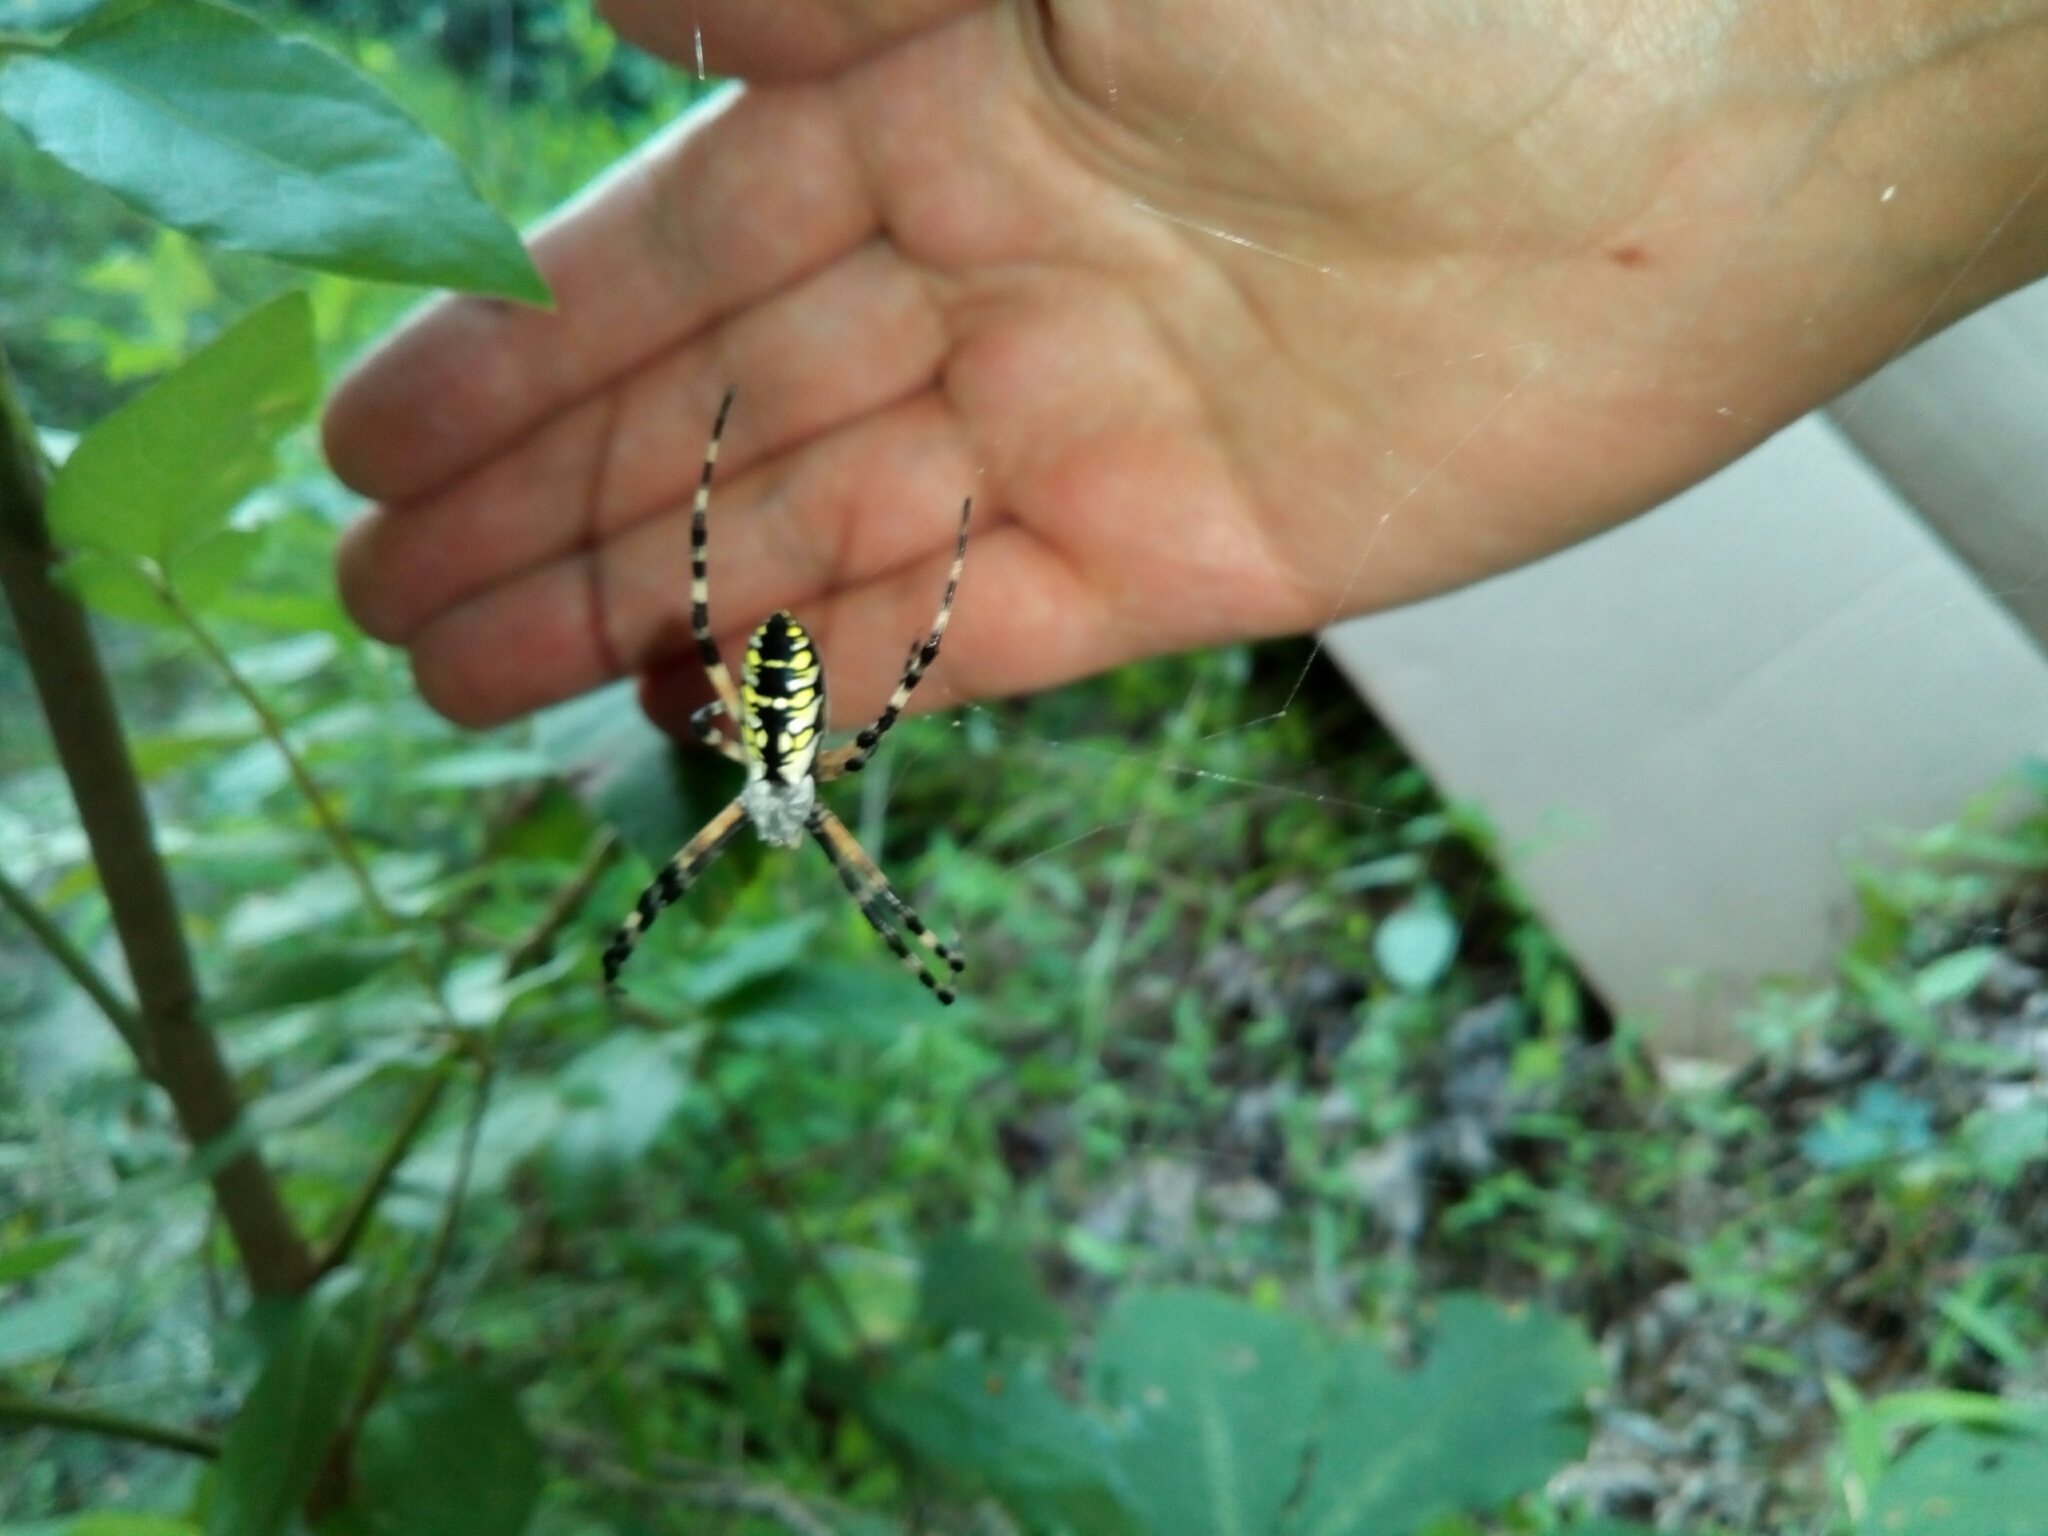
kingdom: Animalia
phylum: Arthropoda
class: Arachnida
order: Araneae
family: Araneidae
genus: Argiope
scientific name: Argiope aurantia
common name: Orb weavers
